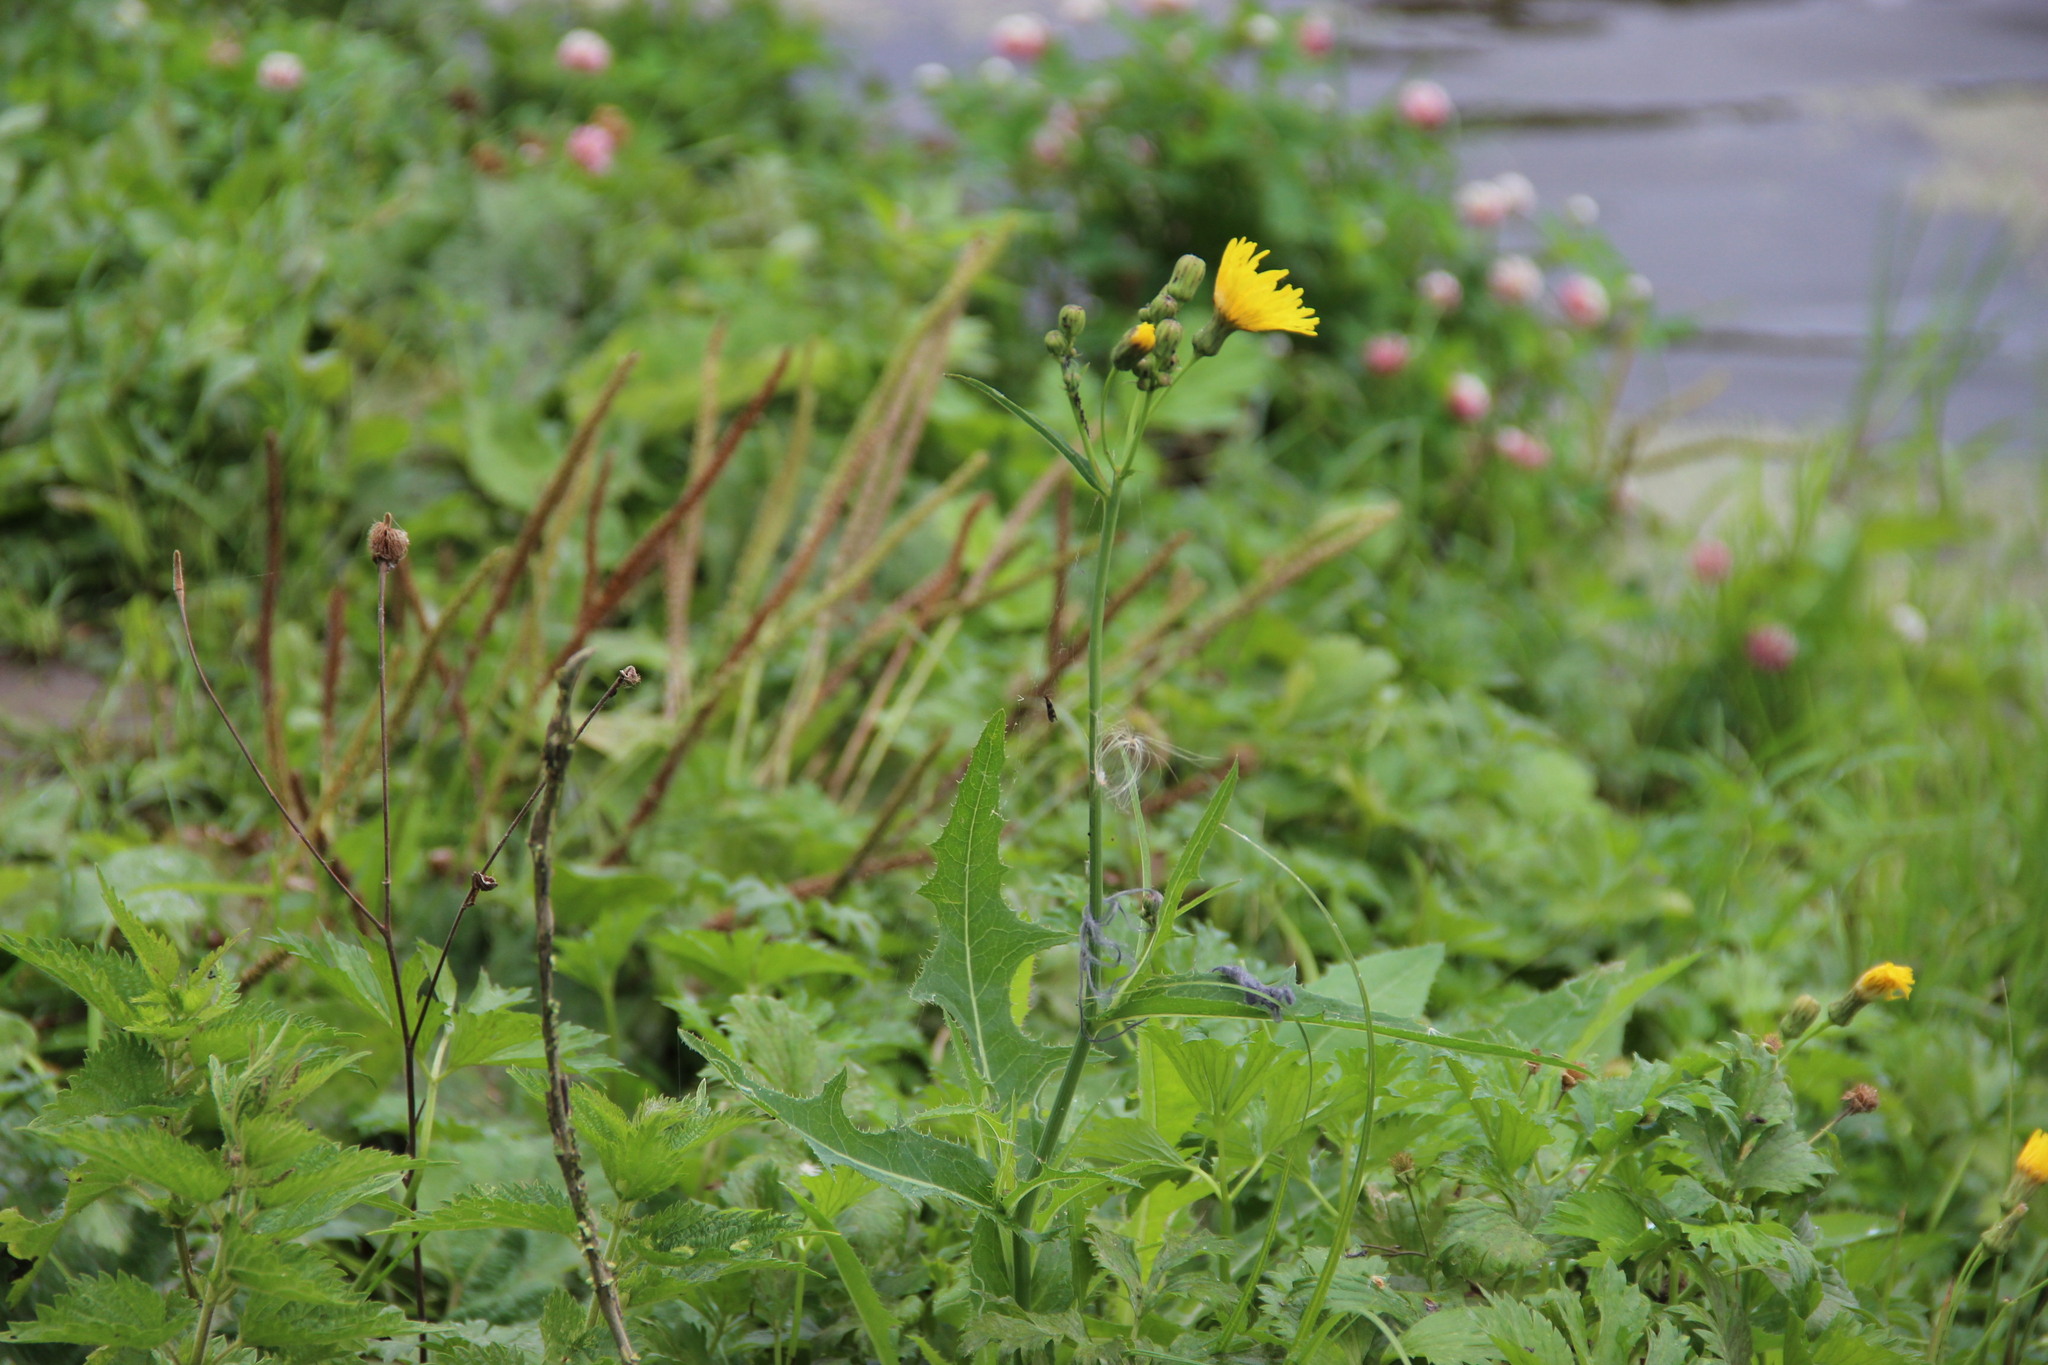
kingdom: Plantae
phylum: Tracheophyta
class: Magnoliopsida
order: Asterales
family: Asteraceae
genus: Sonchus
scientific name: Sonchus arvensis
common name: Perennial sow-thistle
